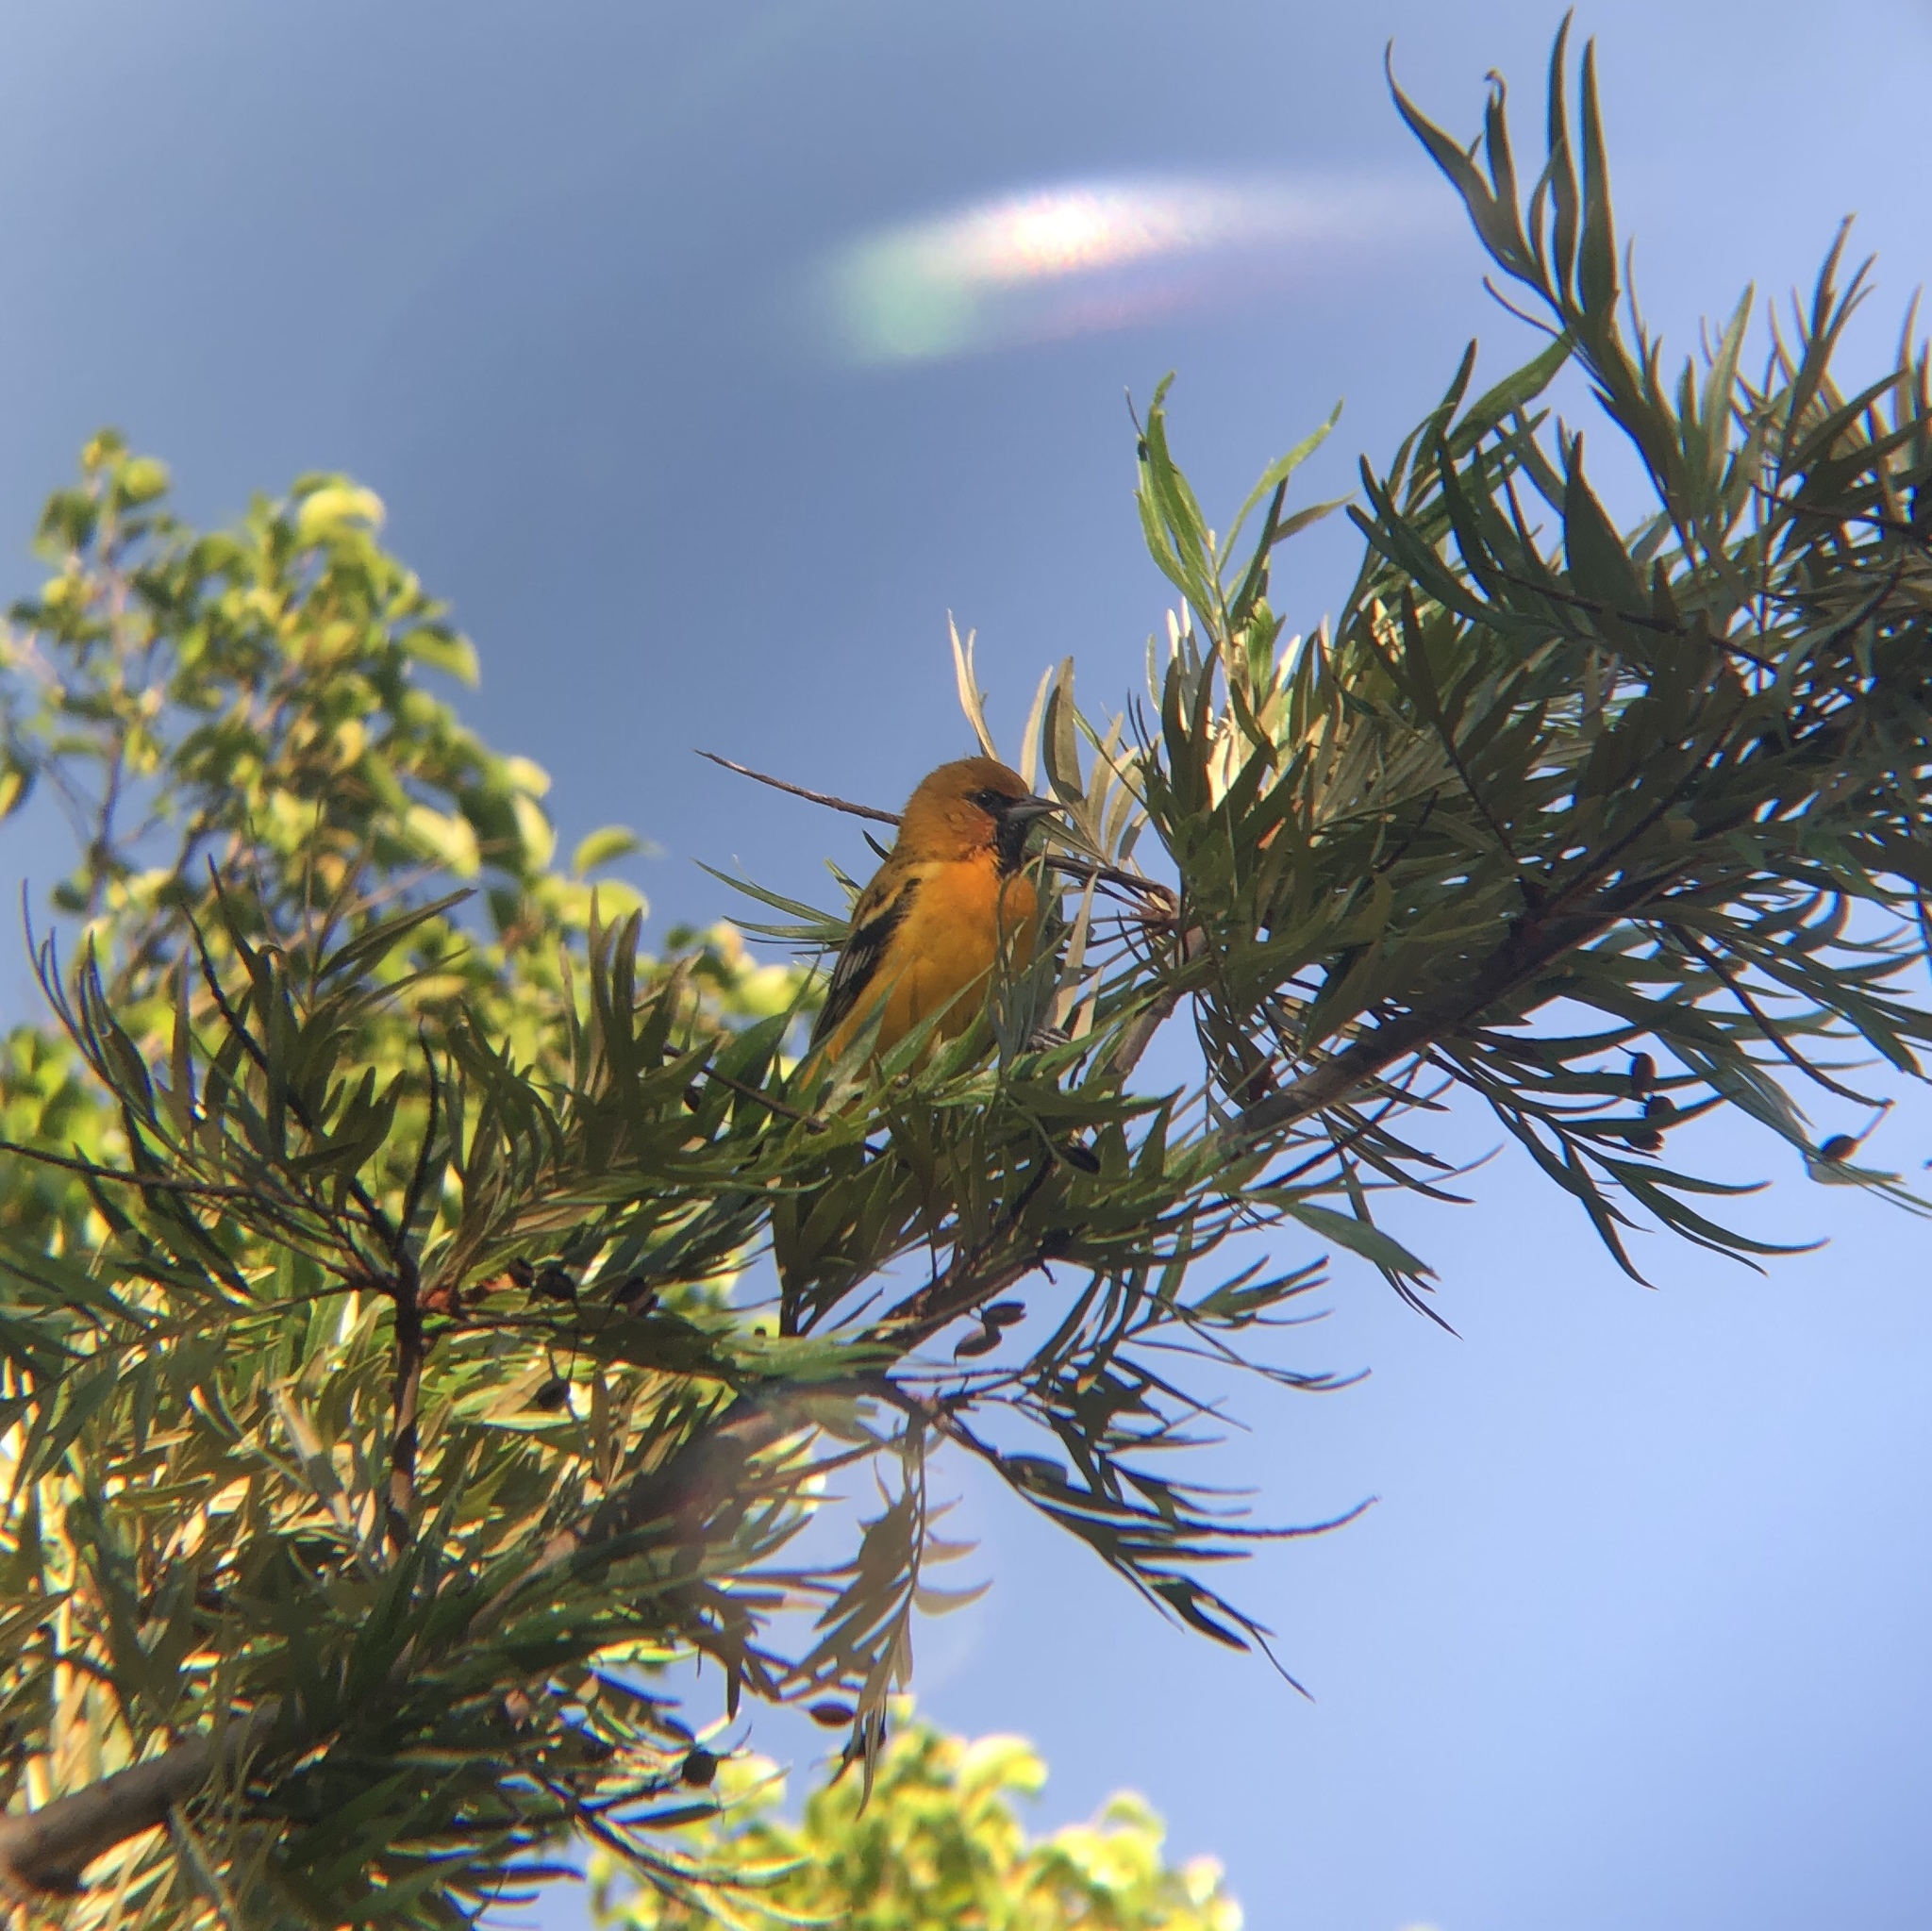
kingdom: Animalia
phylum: Chordata
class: Aves
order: Passeriformes
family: Icteridae
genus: Icterus
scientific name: Icterus pustulatus
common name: Streak-backed oriole
